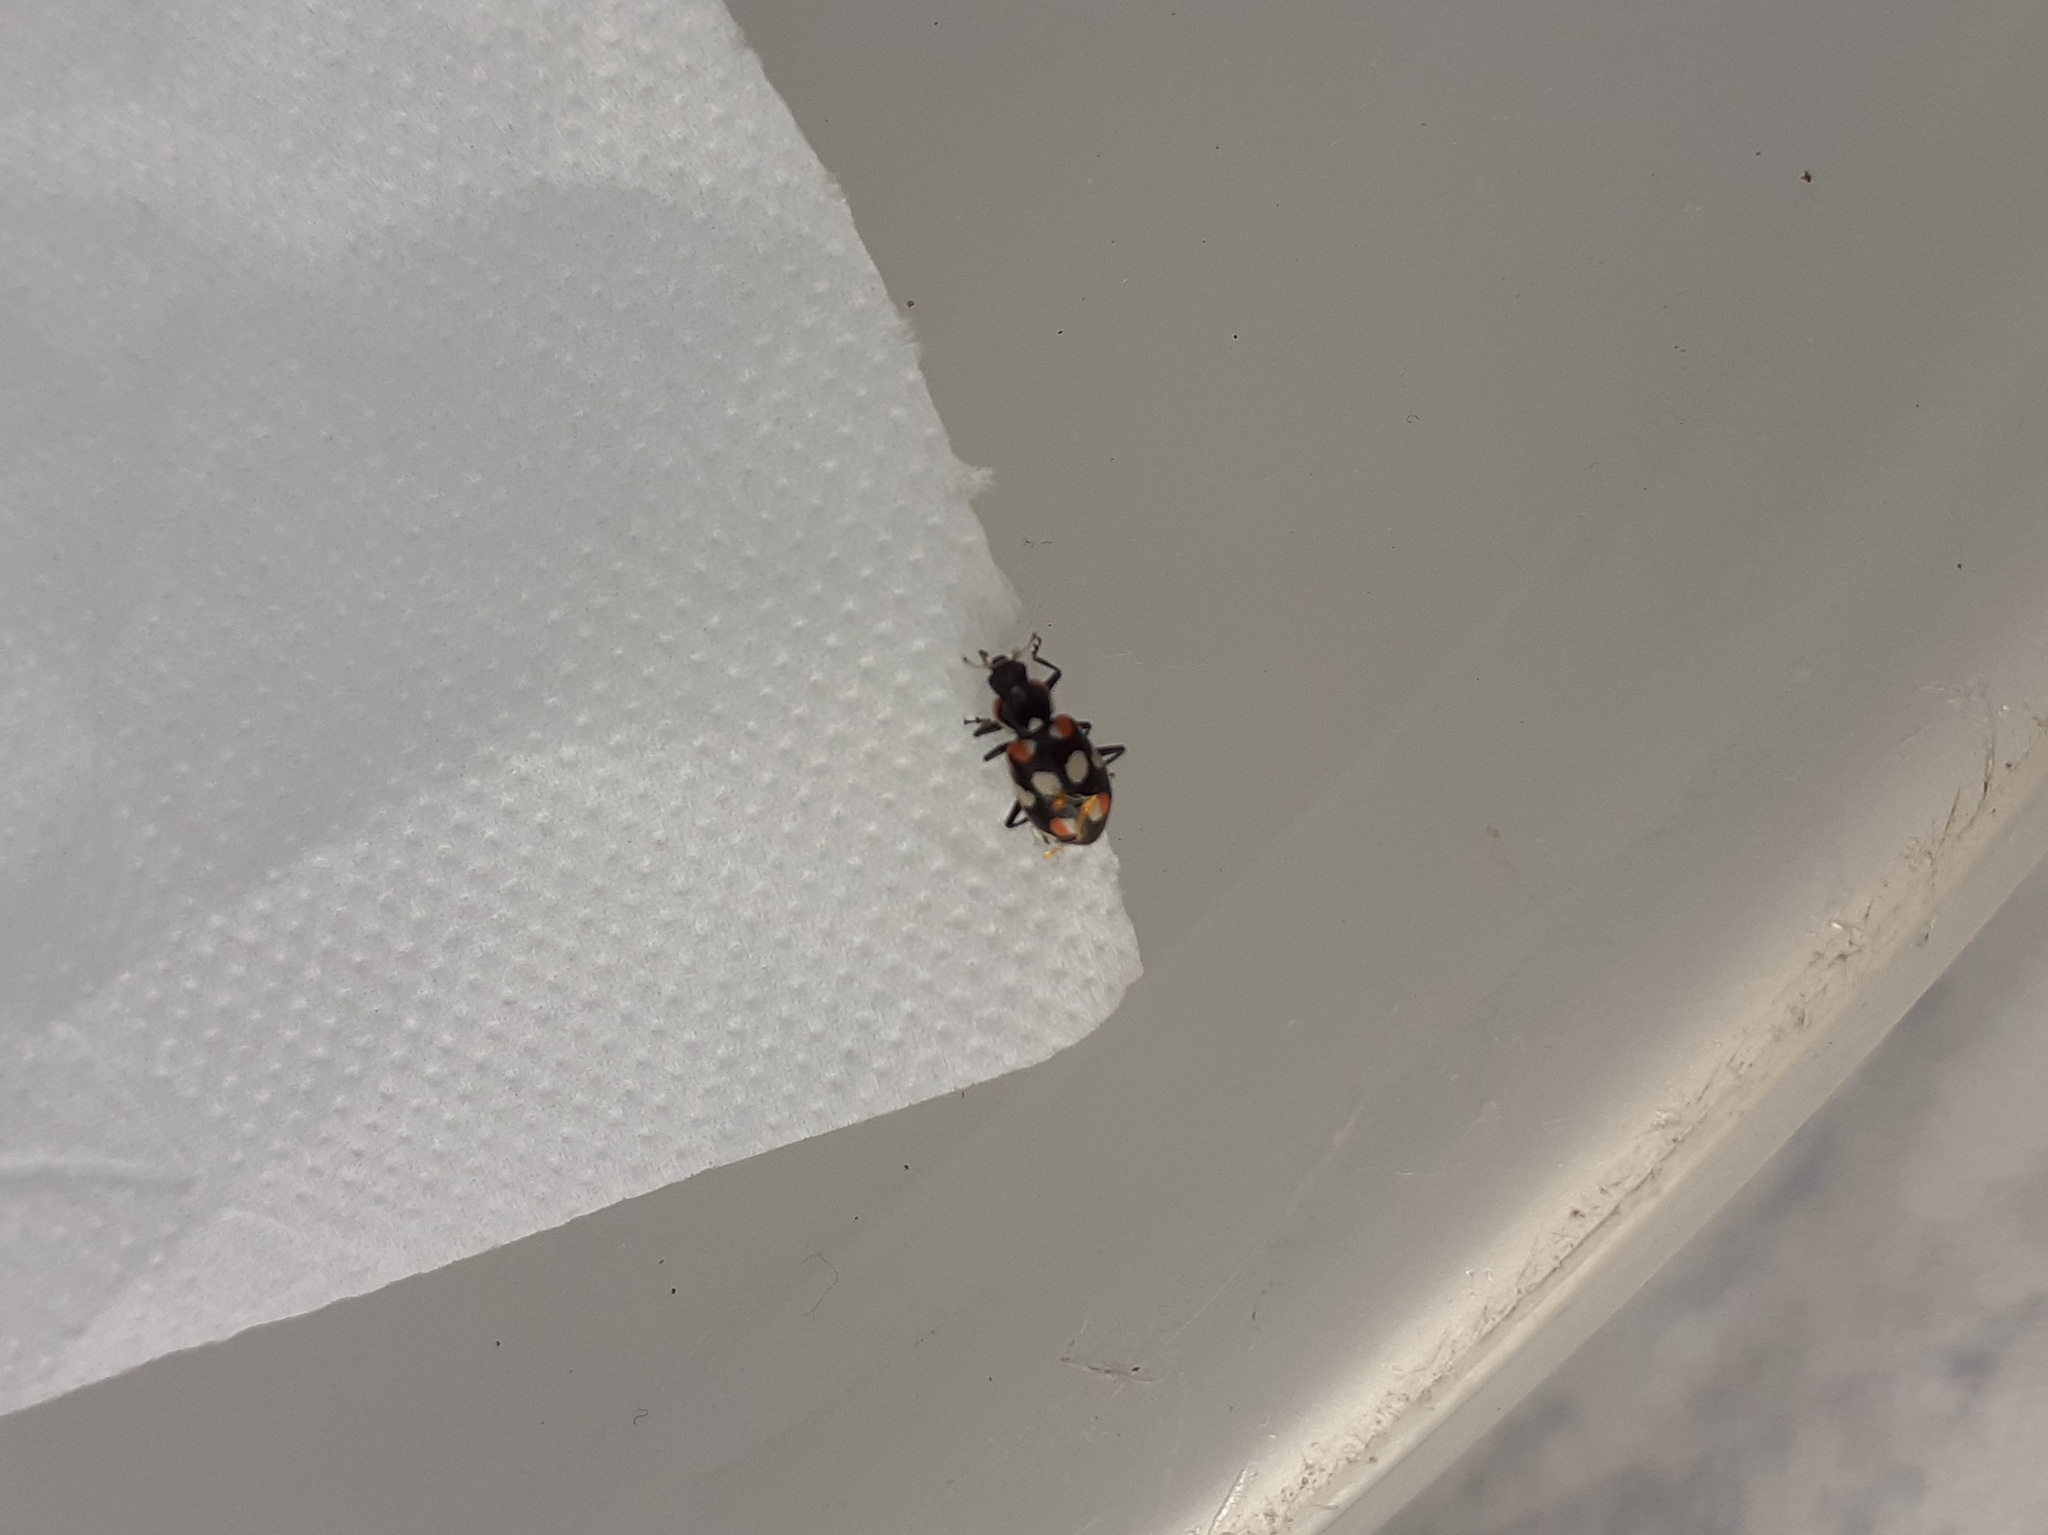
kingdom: Animalia
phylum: Arthropoda
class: Insecta
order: Coleoptera
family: Coccinellidae
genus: Eriopis
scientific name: Eriopis connexa
